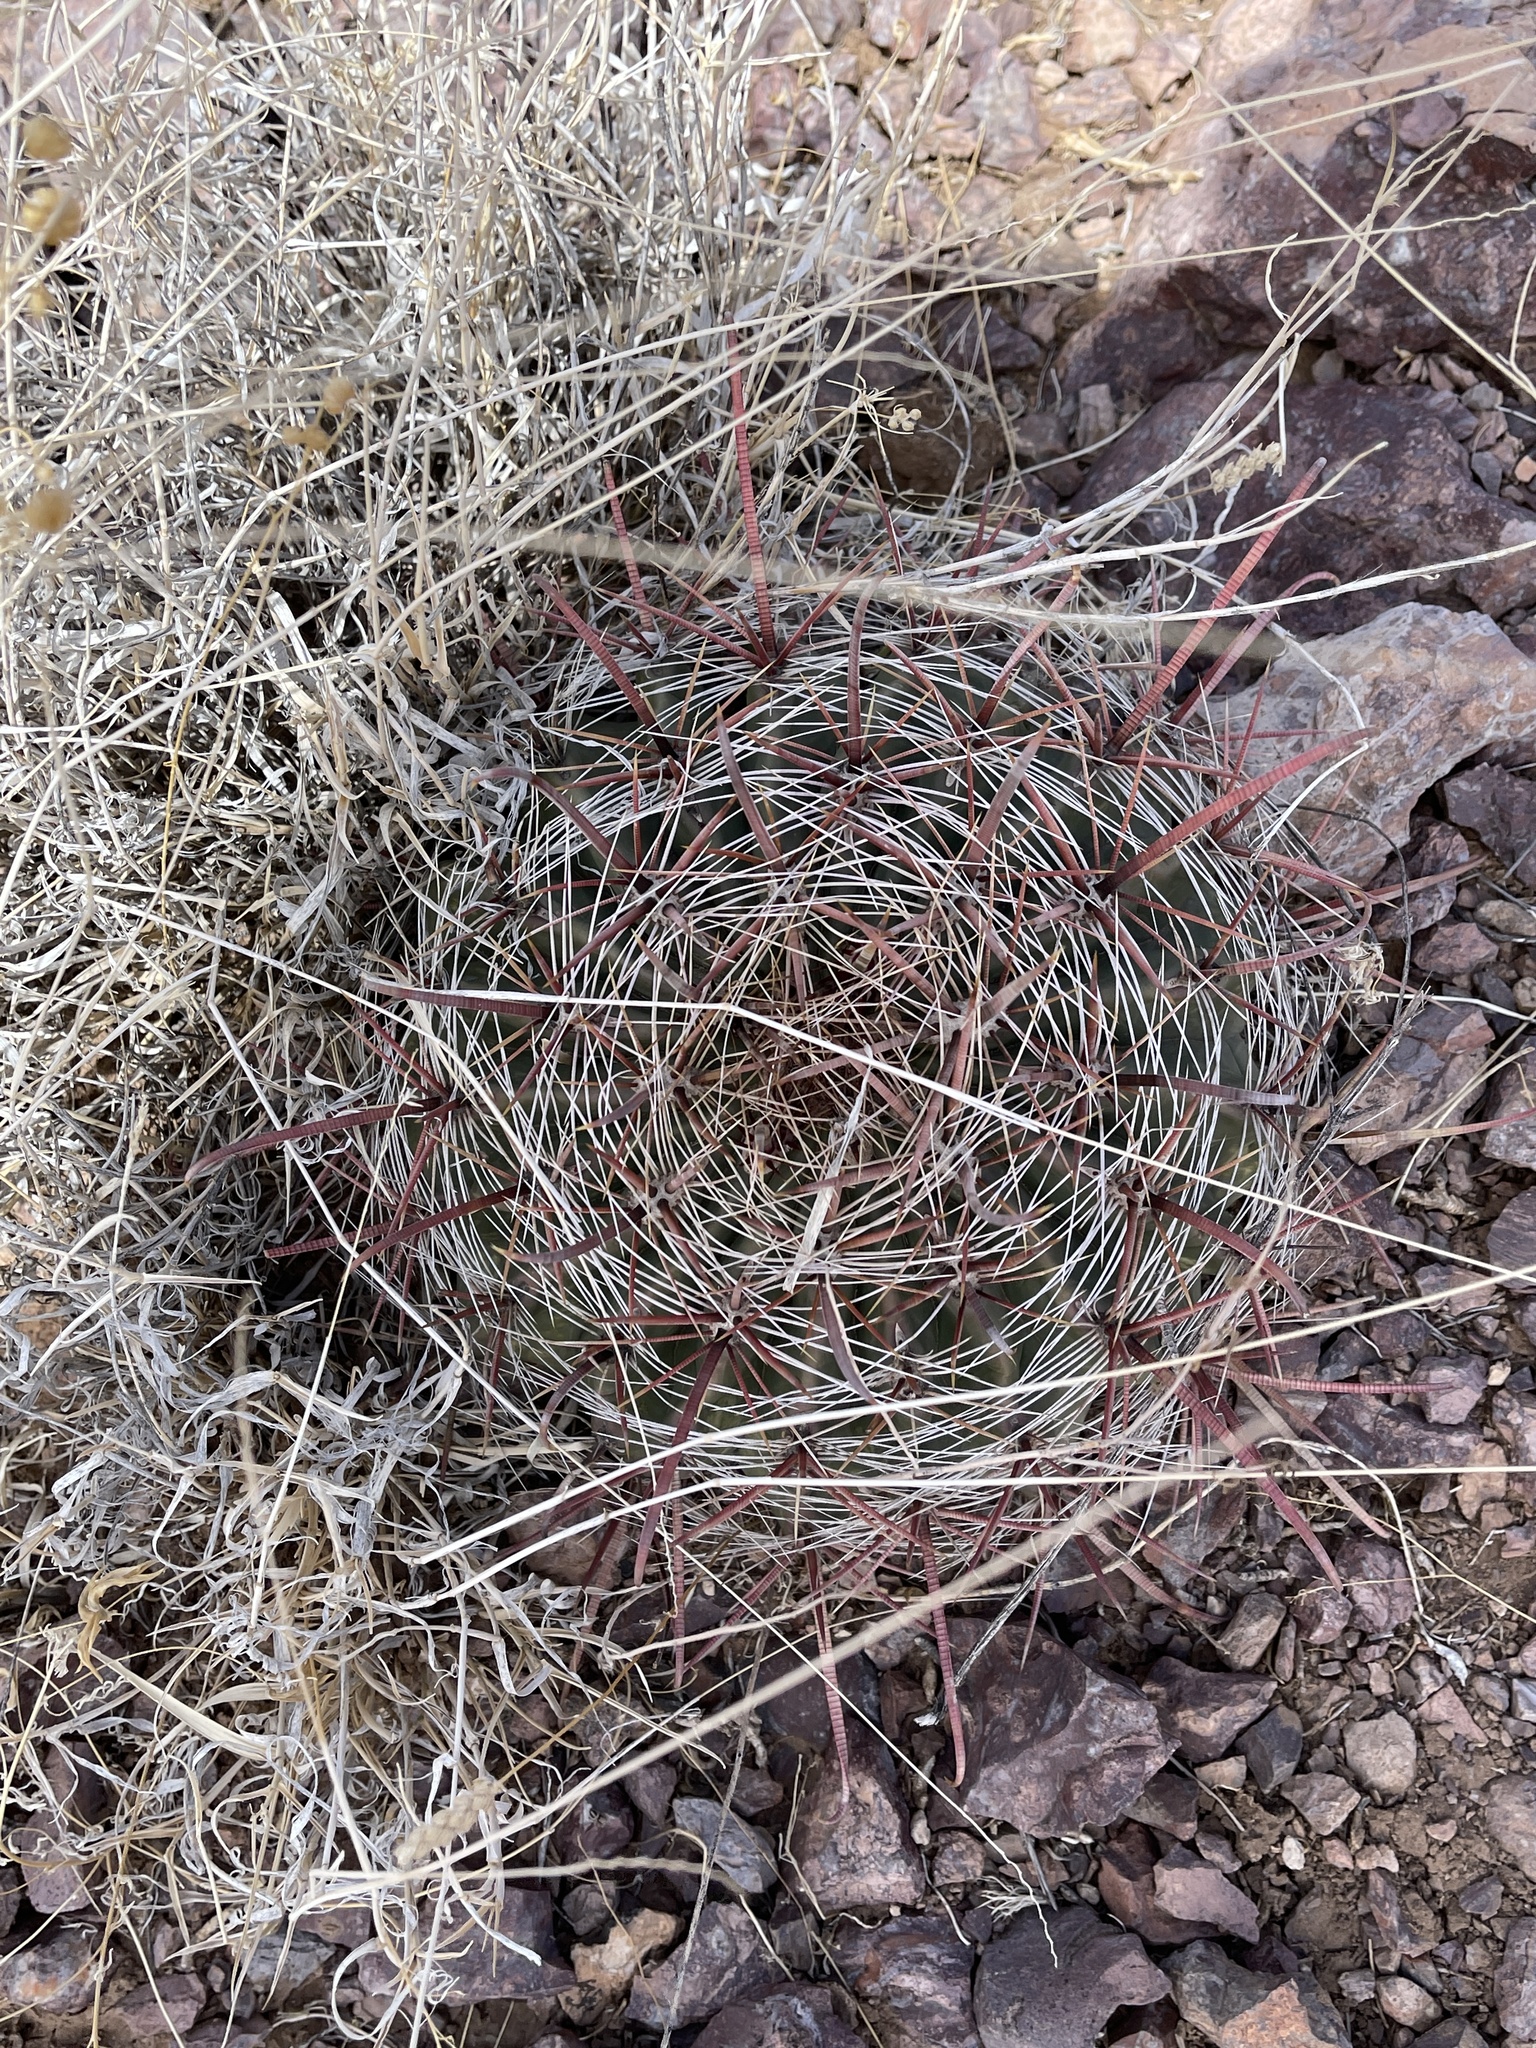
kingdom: Plantae
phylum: Tracheophyta
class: Magnoliopsida
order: Caryophyllales
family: Cactaceae
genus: Ferocactus
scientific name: Ferocactus wislizeni
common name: Candy barrel cactus
